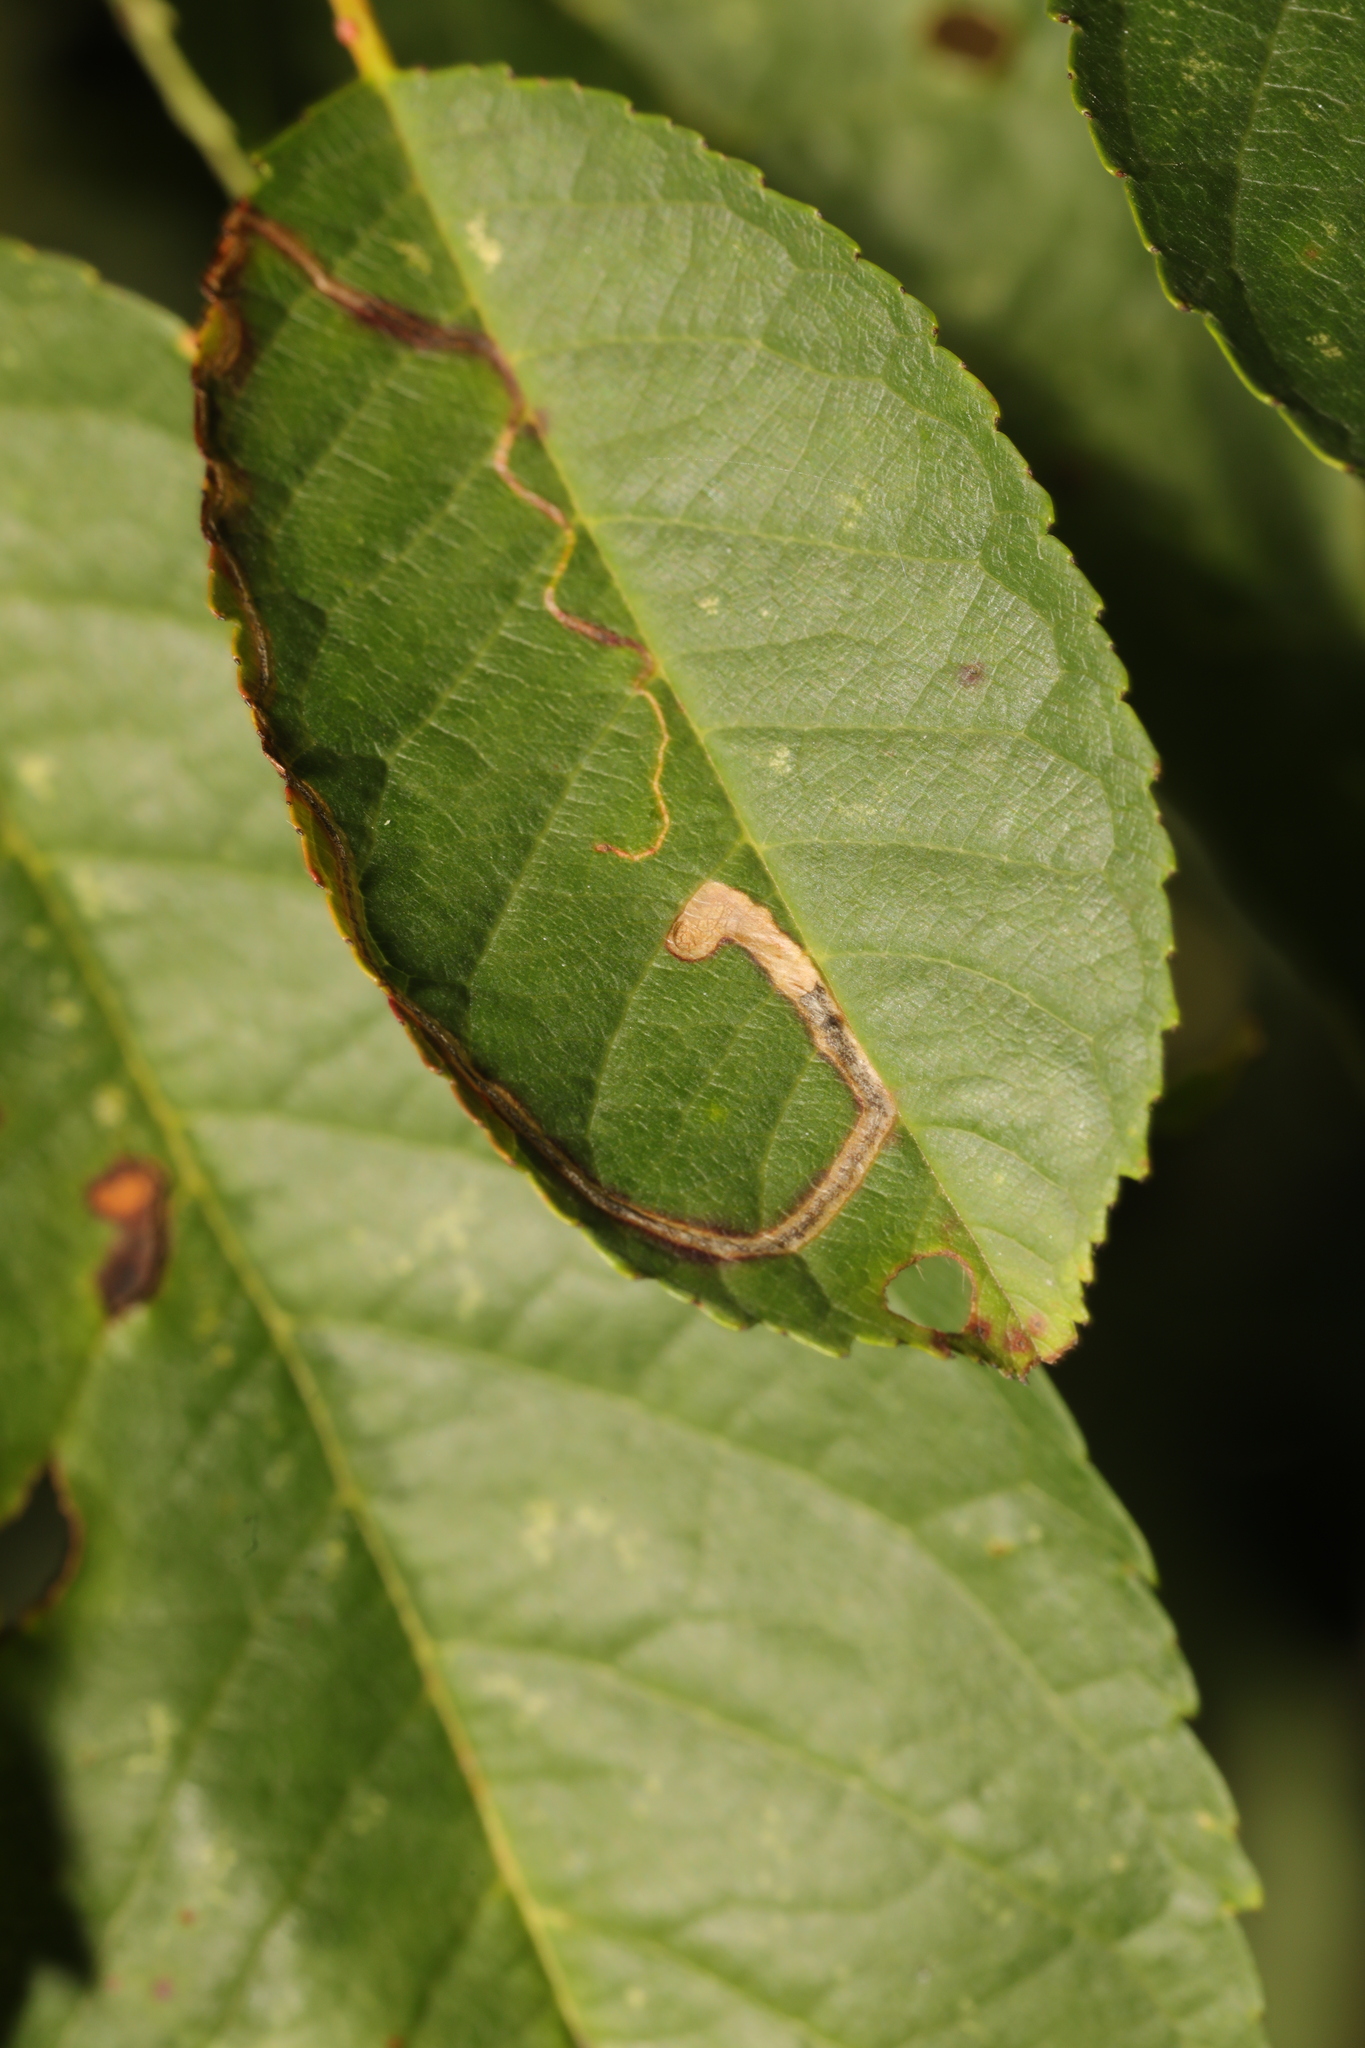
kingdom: Animalia
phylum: Arthropoda
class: Insecta
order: Lepidoptera
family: Lyonetiidae
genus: Lyonetia
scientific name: Lyonetia clerkella
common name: Apple leaf miner
